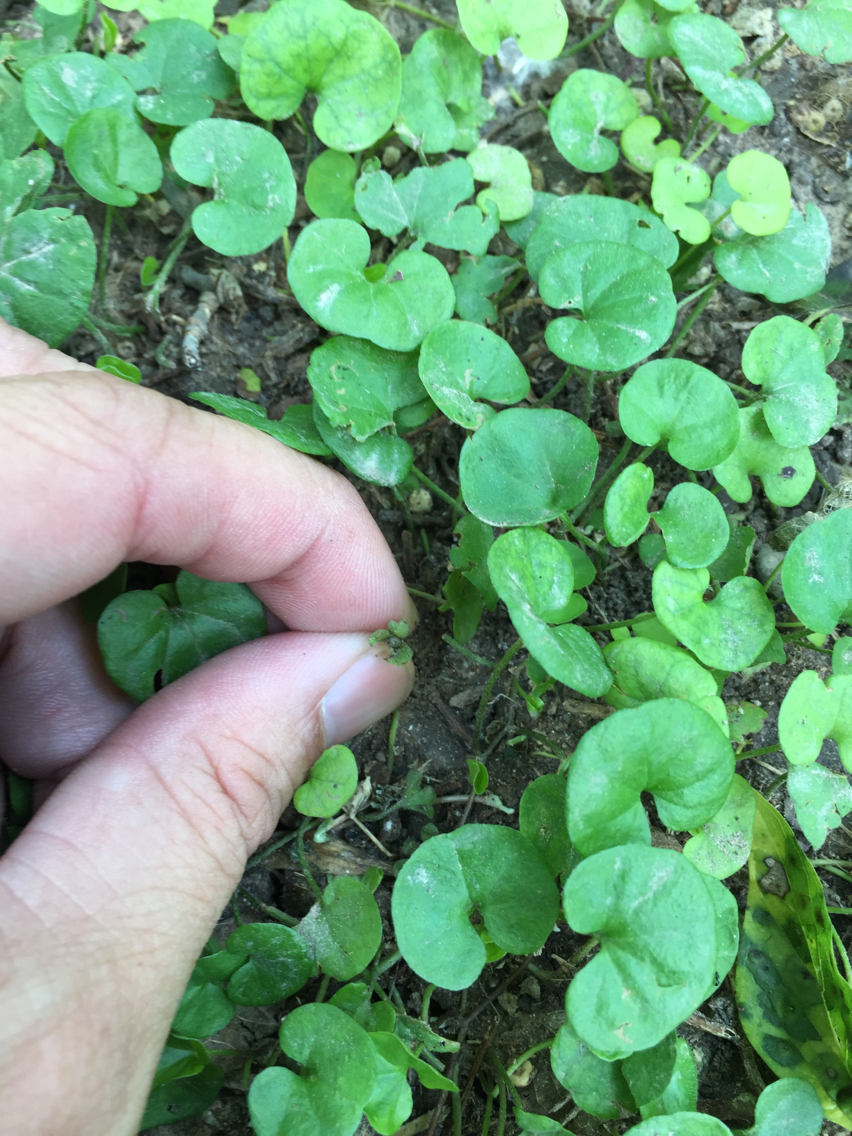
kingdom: Plantae
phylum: Tracheophyta
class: Magnoliopsida
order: Solanales
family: Convolvulaceae
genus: Dichondra
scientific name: Dichondra carolinensis
